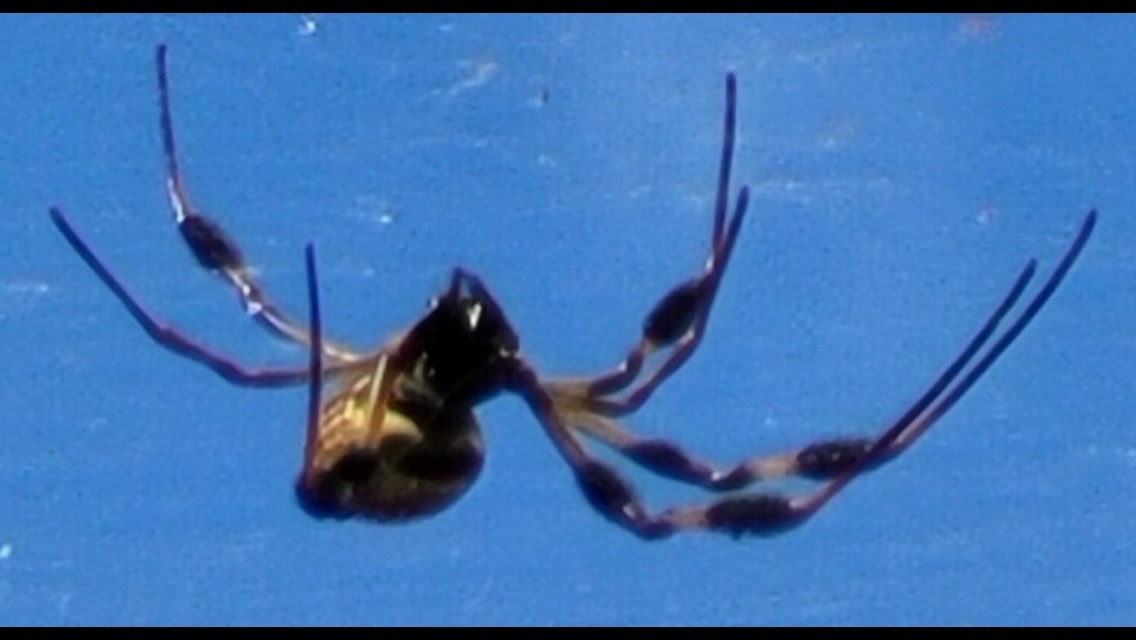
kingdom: Animalia
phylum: Arthropoda
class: Arachnida
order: Araneae
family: Araneidae
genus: Trichonephila
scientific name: Trichonephila clavipes
